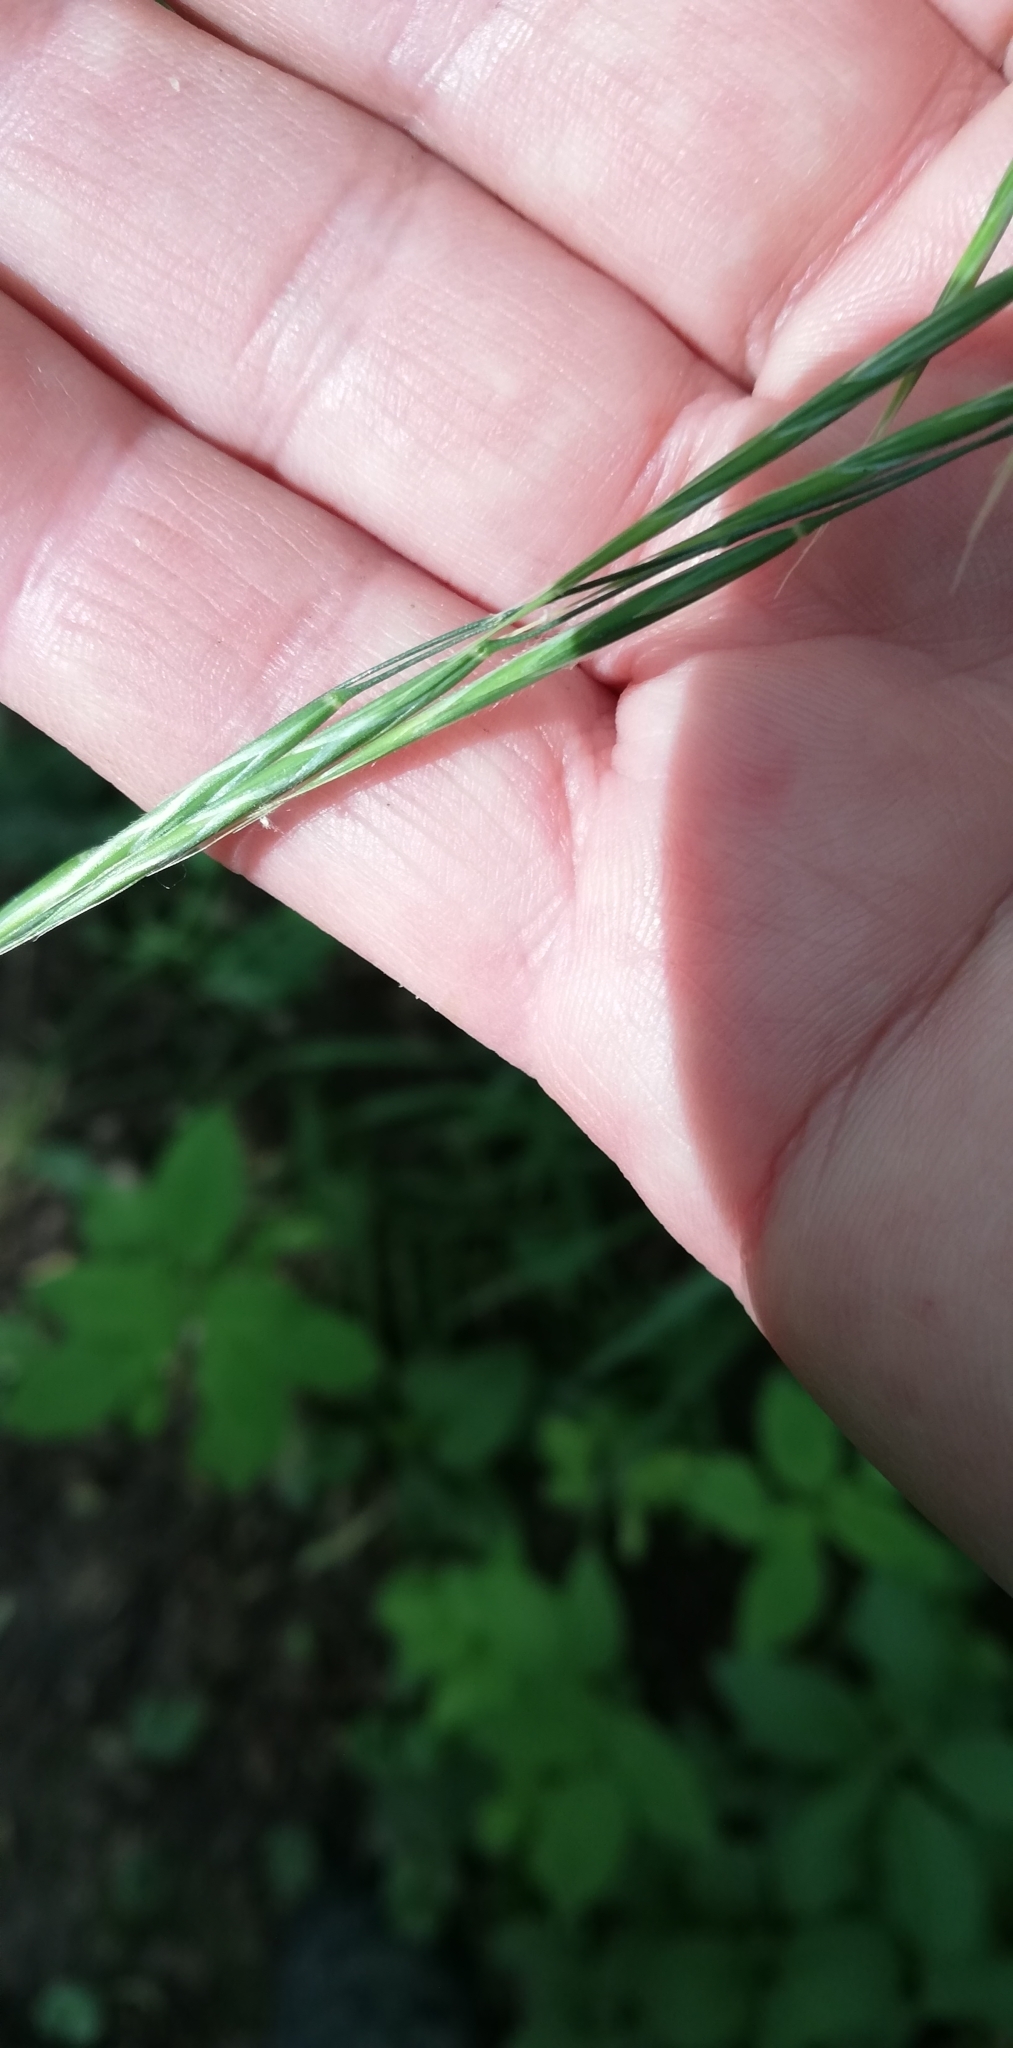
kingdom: Plantae
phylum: Tracheophyta
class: Liliopsida
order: Poales
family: Poaceae
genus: Brachypodium
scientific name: Brachypodium sylvaticum
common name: False-brome
